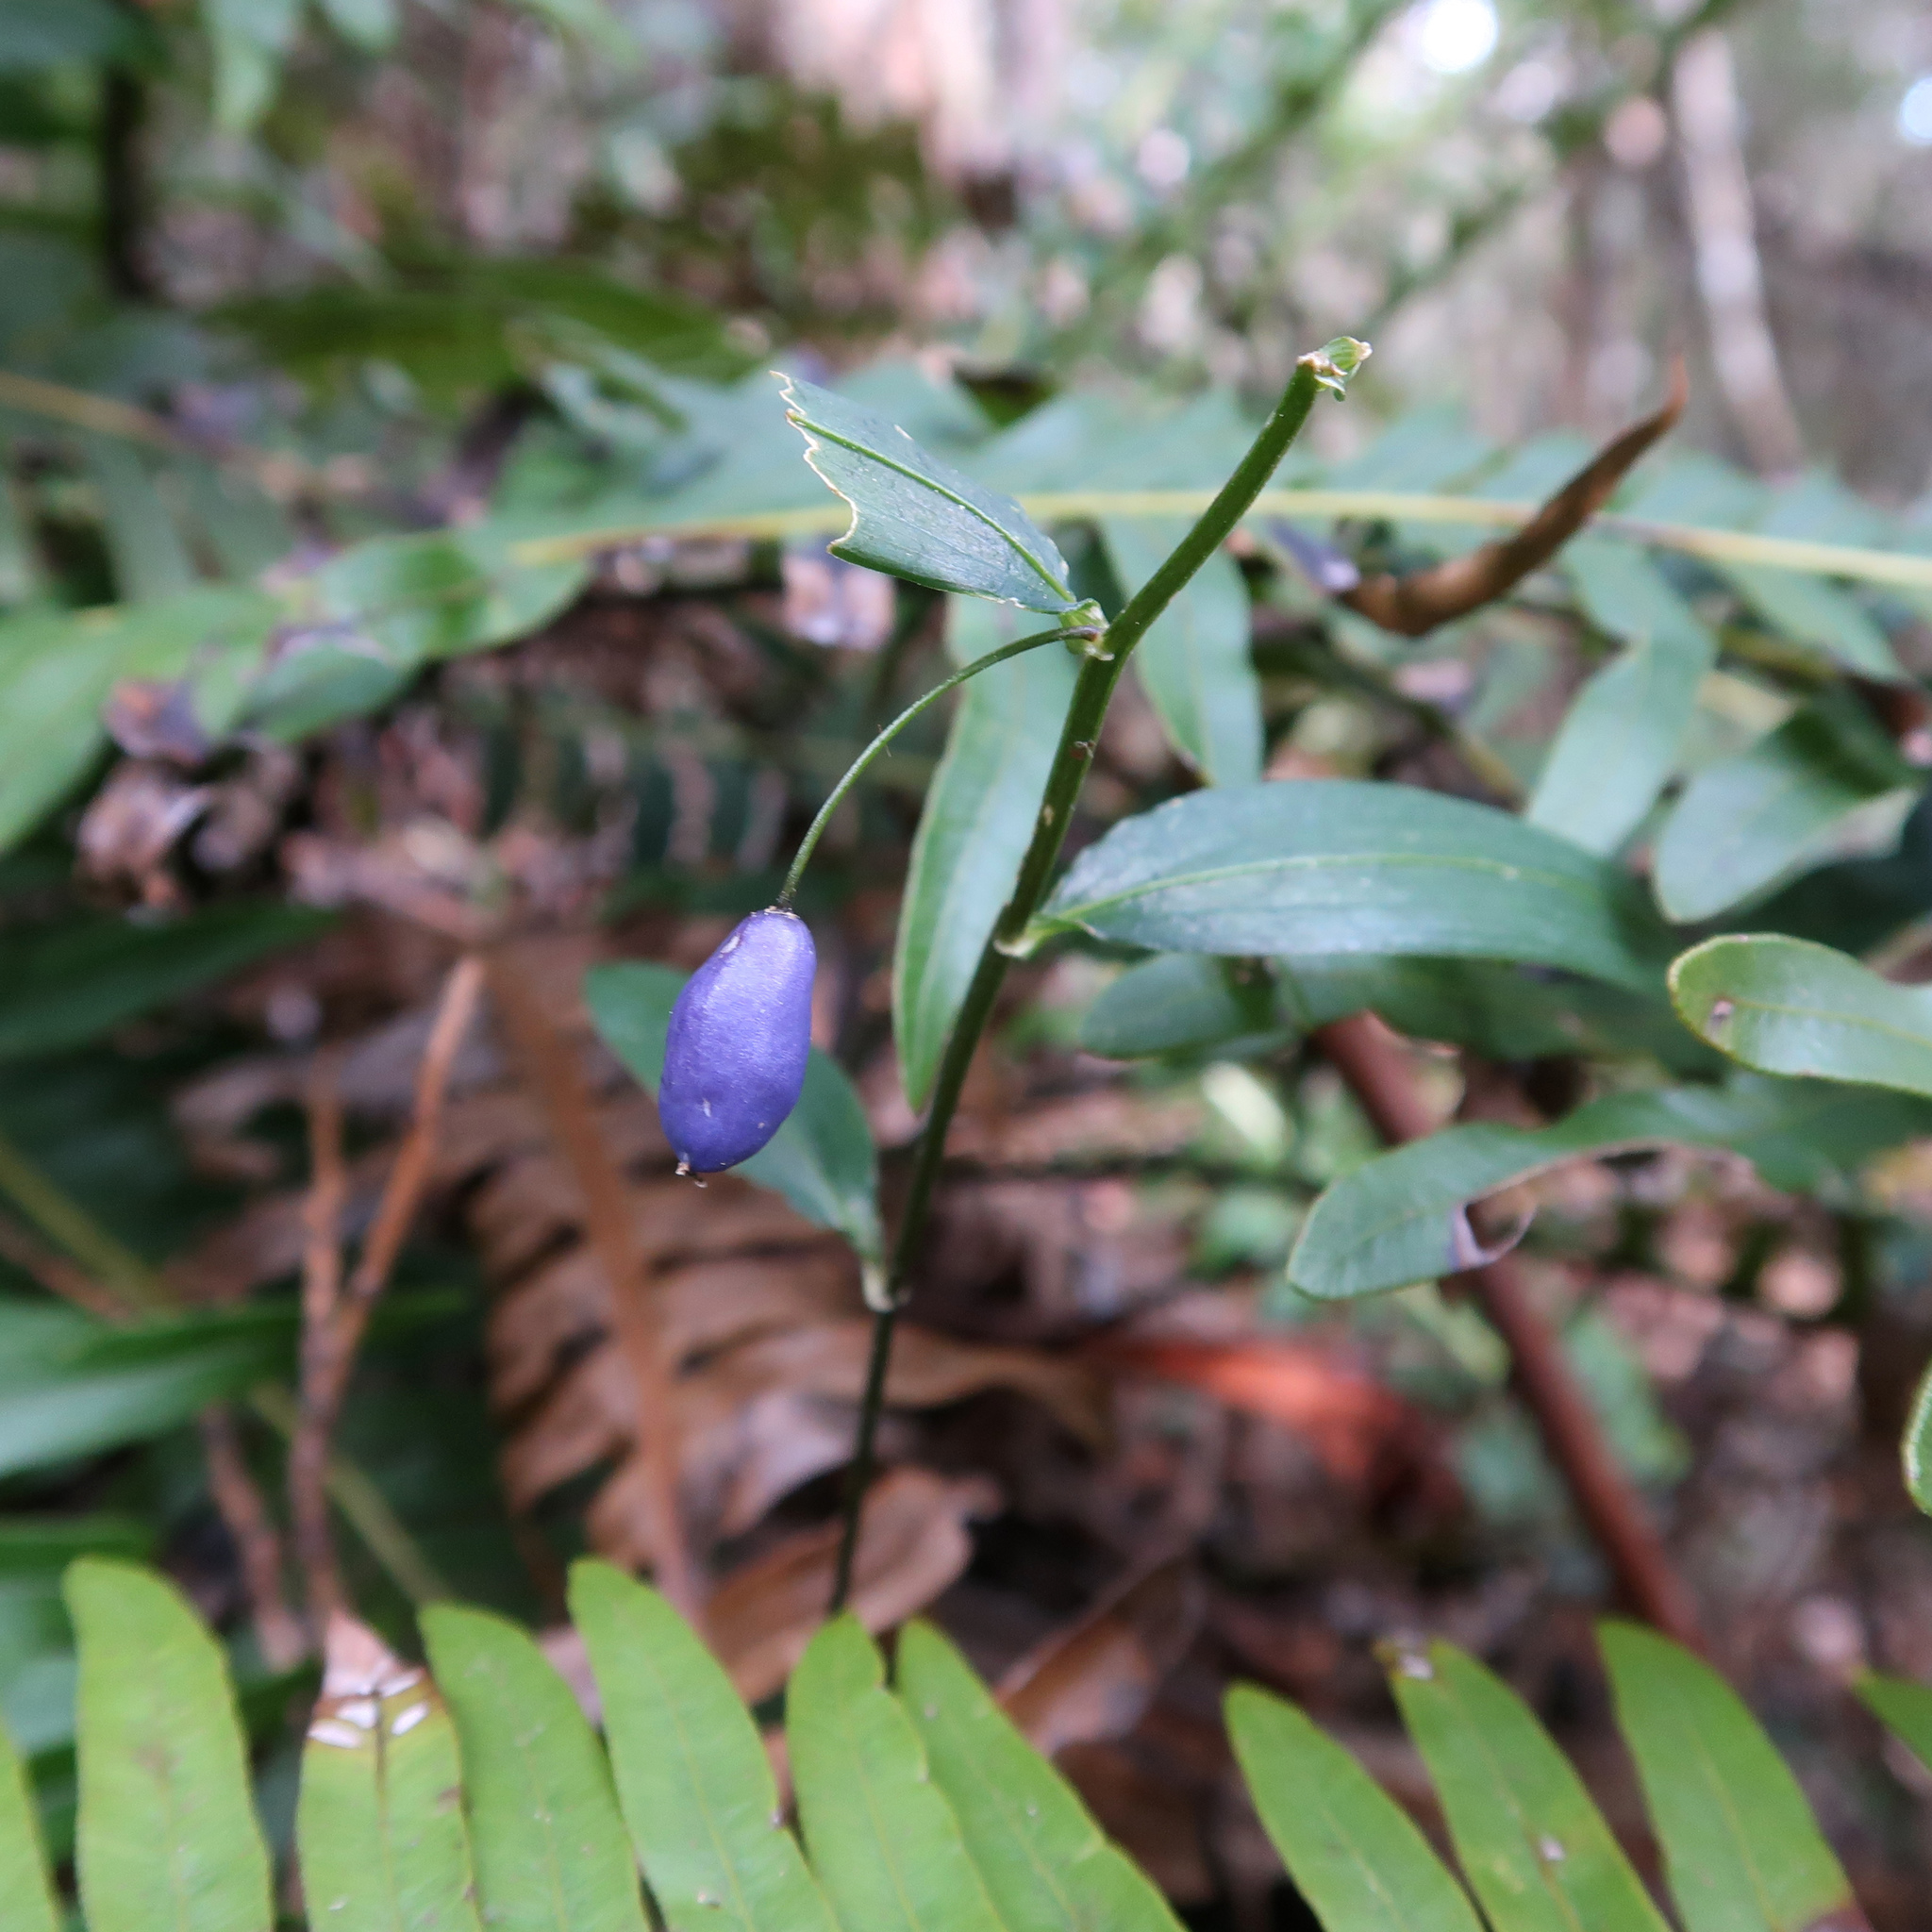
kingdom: Plantae
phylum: Tracheophyta
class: Liliopsida
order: Liliales
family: Alstroemeriaceae
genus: Drymophila
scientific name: Drymophila cyanocarpa
